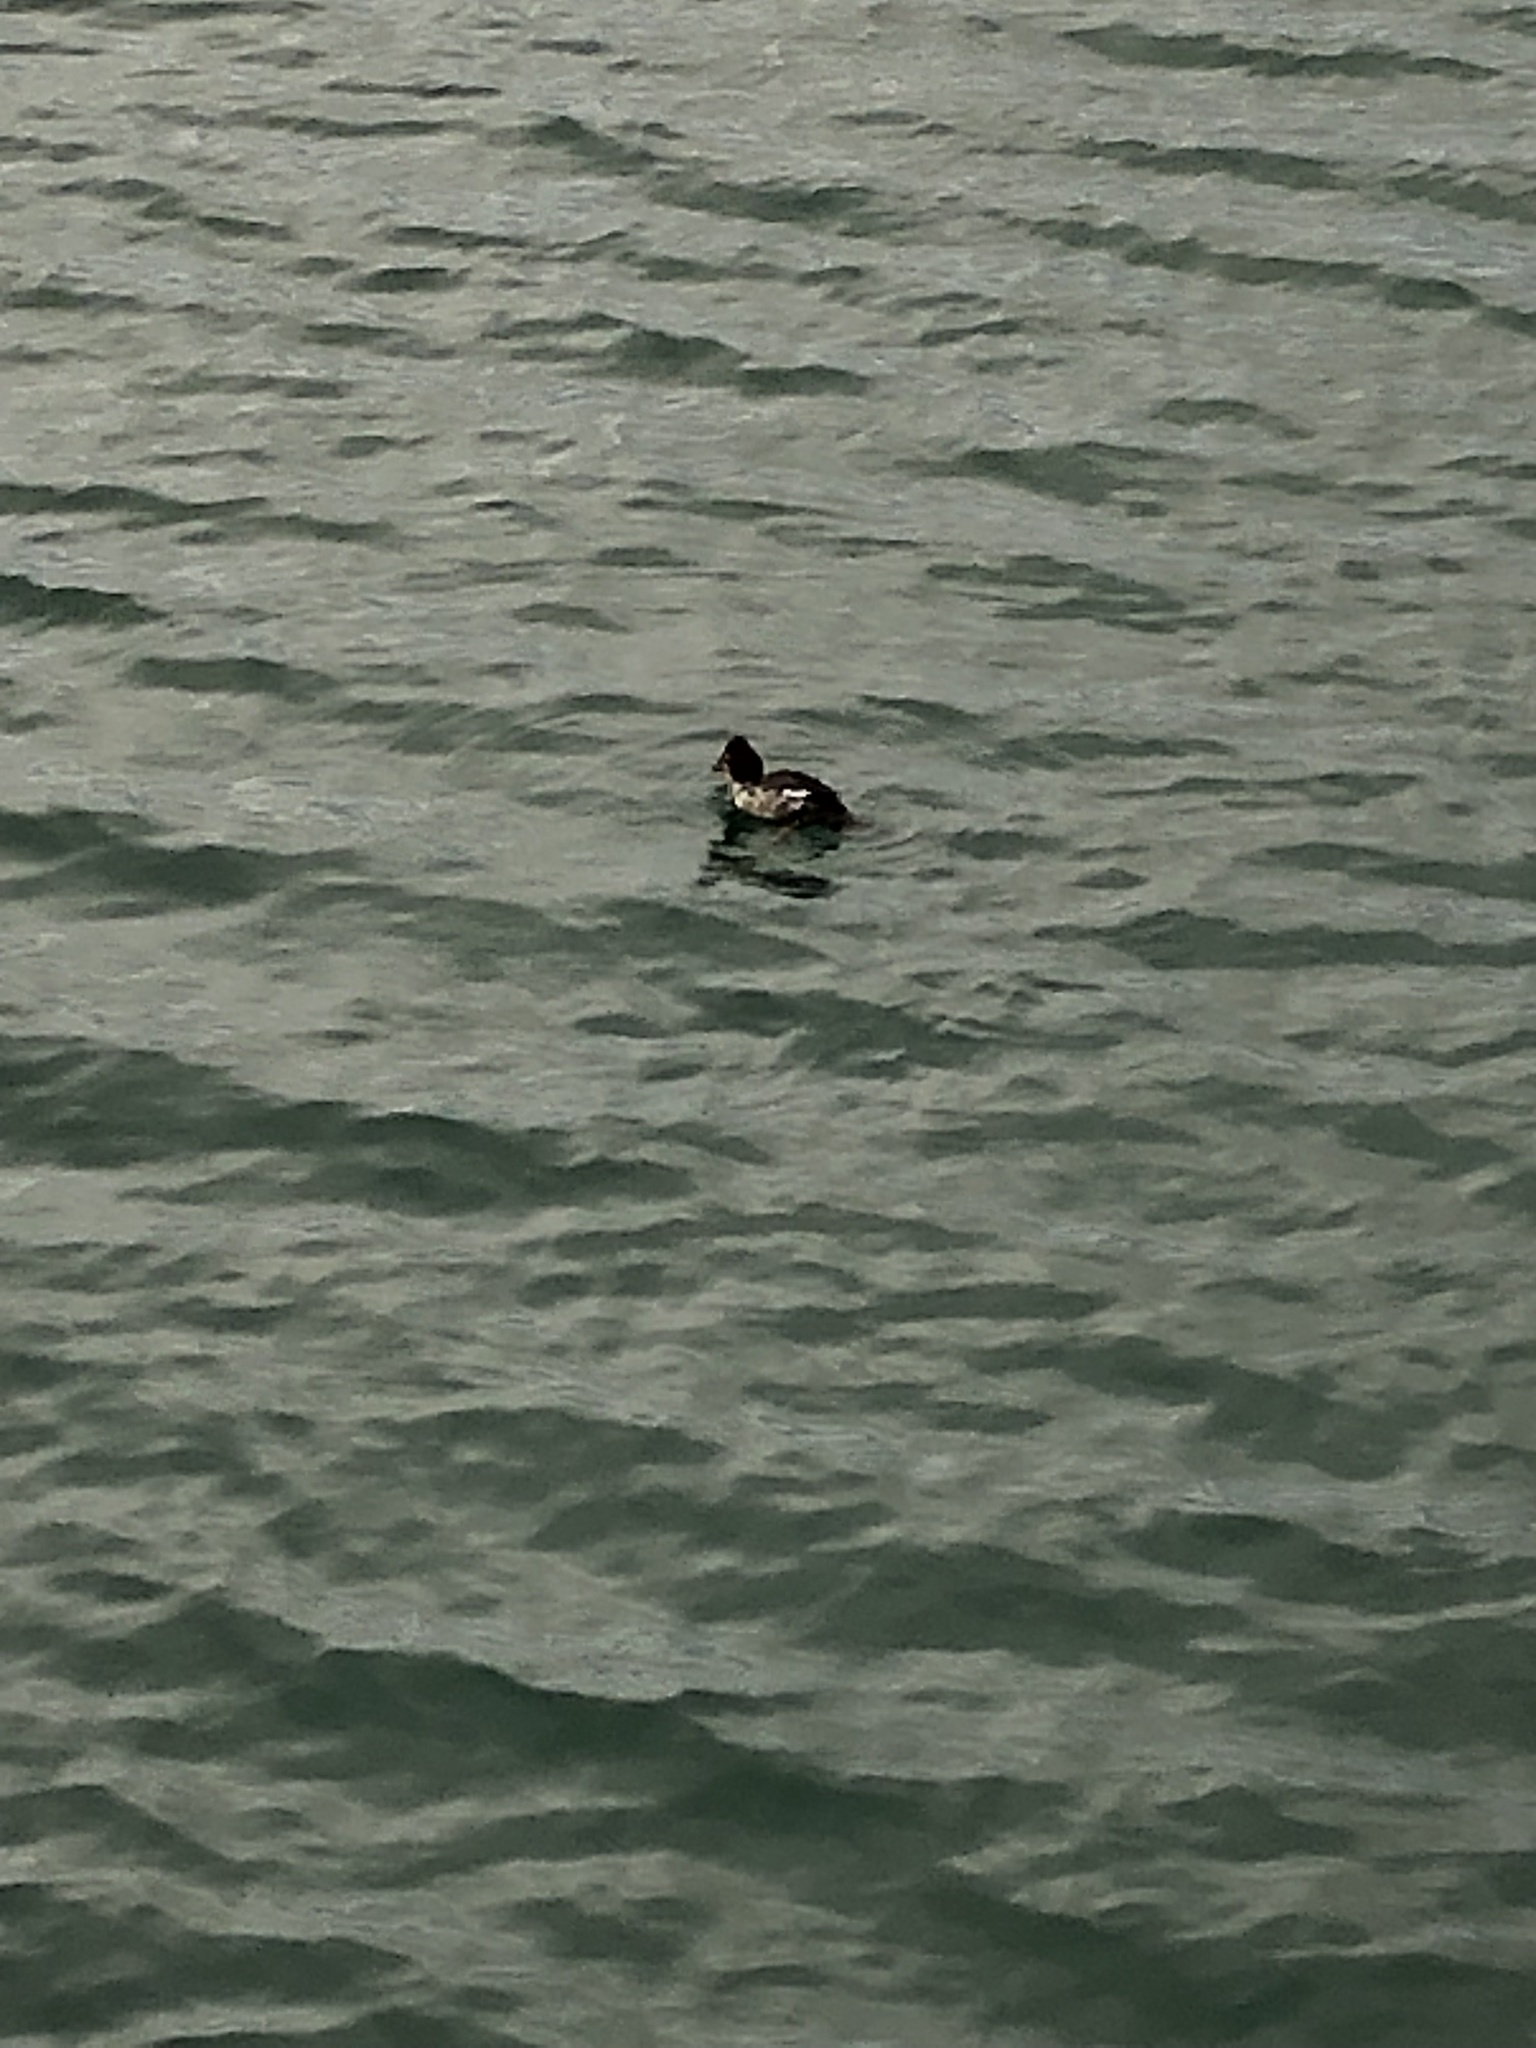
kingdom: Animalia
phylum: Chordata
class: Aves
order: Anseriformes
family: Anatidae
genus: Bucephala
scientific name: Bucephala clangula
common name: Common goldeneye
